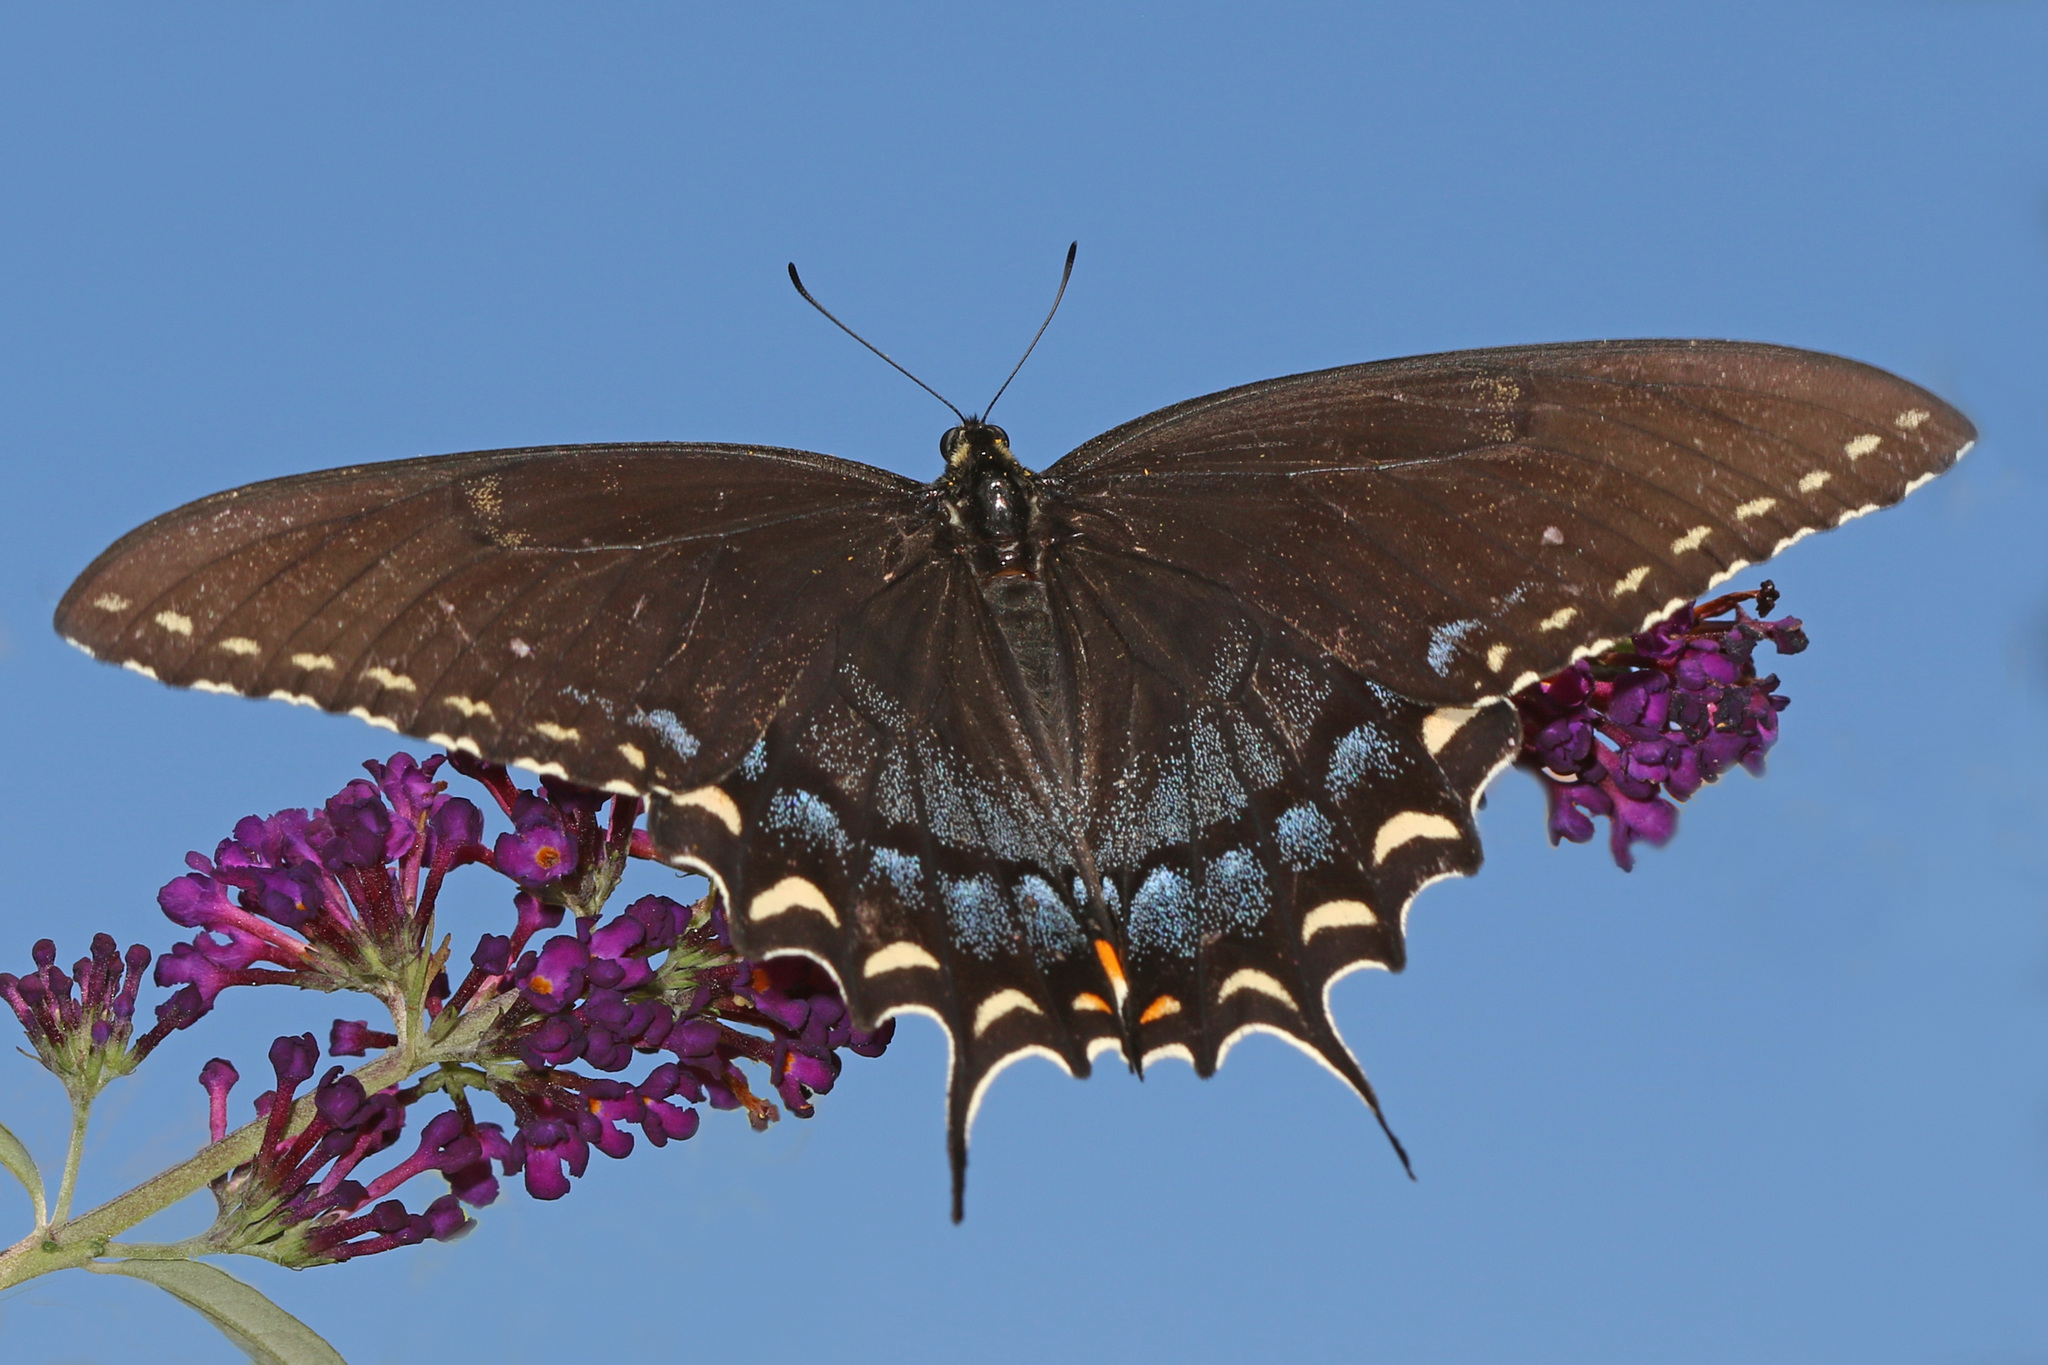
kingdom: Animalia
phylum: Arthropoda
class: Insecta
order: Lepidoptera
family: Papilionidae
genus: Papilio
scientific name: Papilio glaucus
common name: Tiger swallowtail
